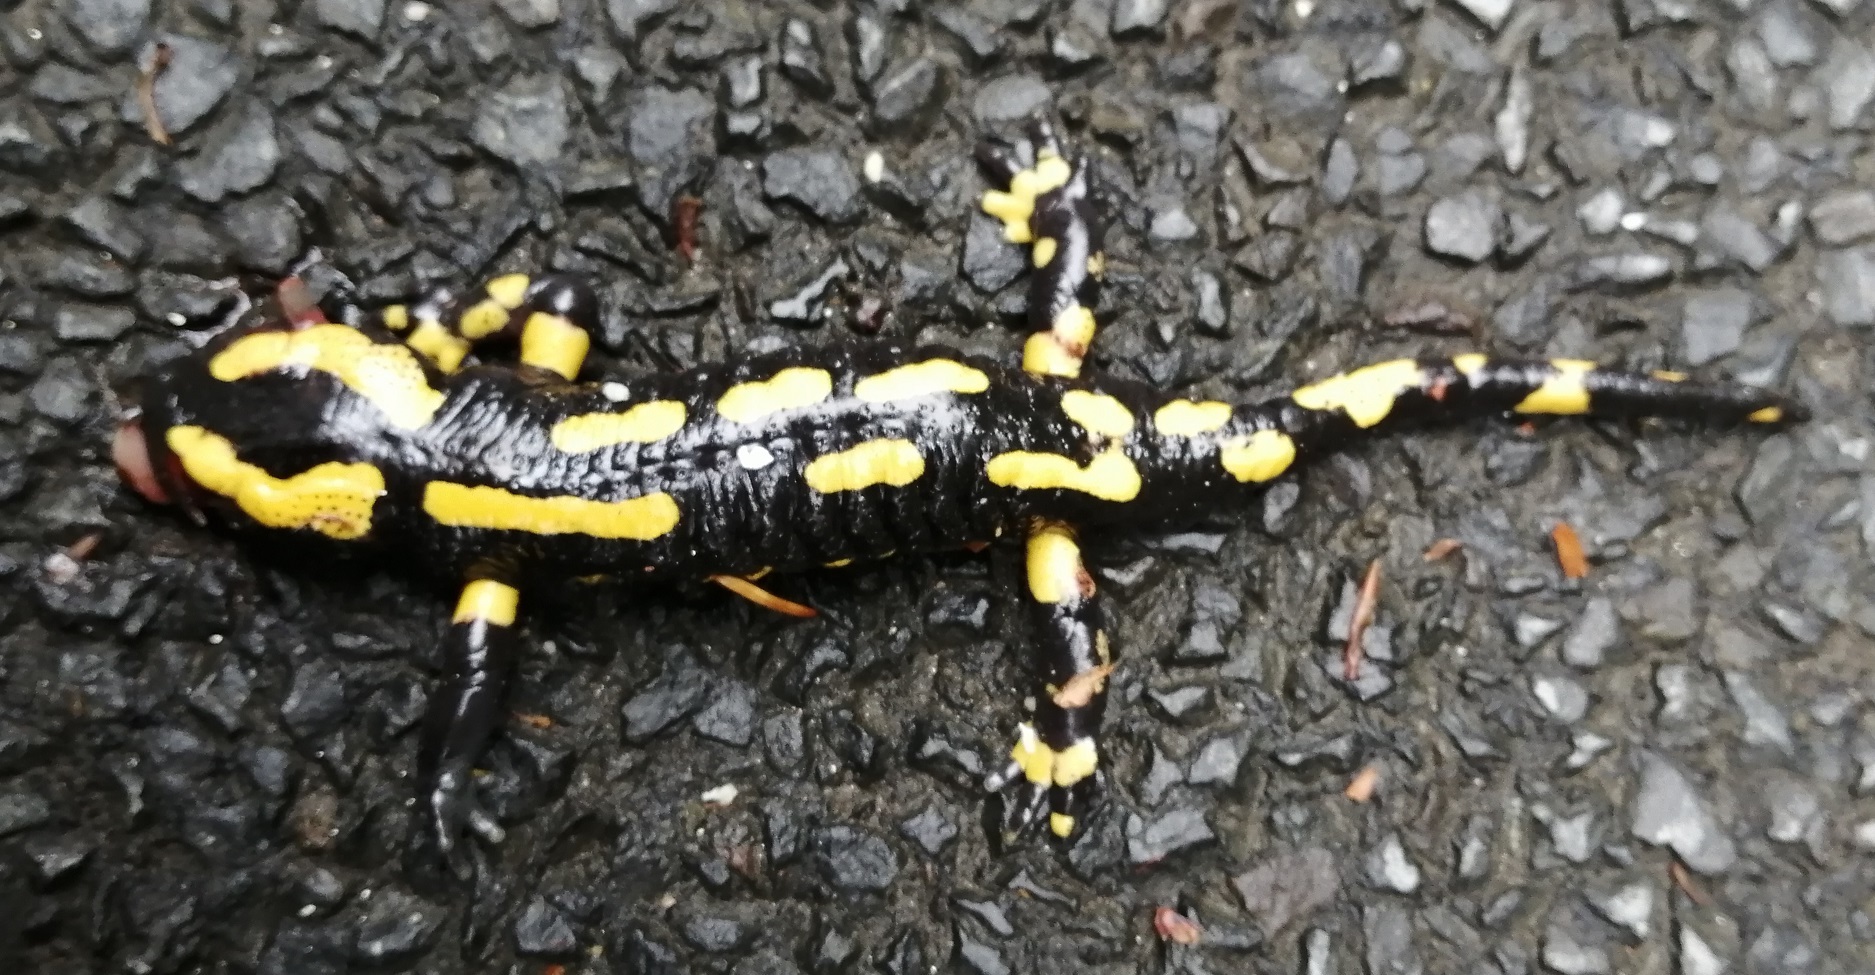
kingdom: Animalia
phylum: Chordata
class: Amphibia
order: Caudata
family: Salamandridae
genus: Salamandra
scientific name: Salamandra salamandra
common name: Fire salamander
